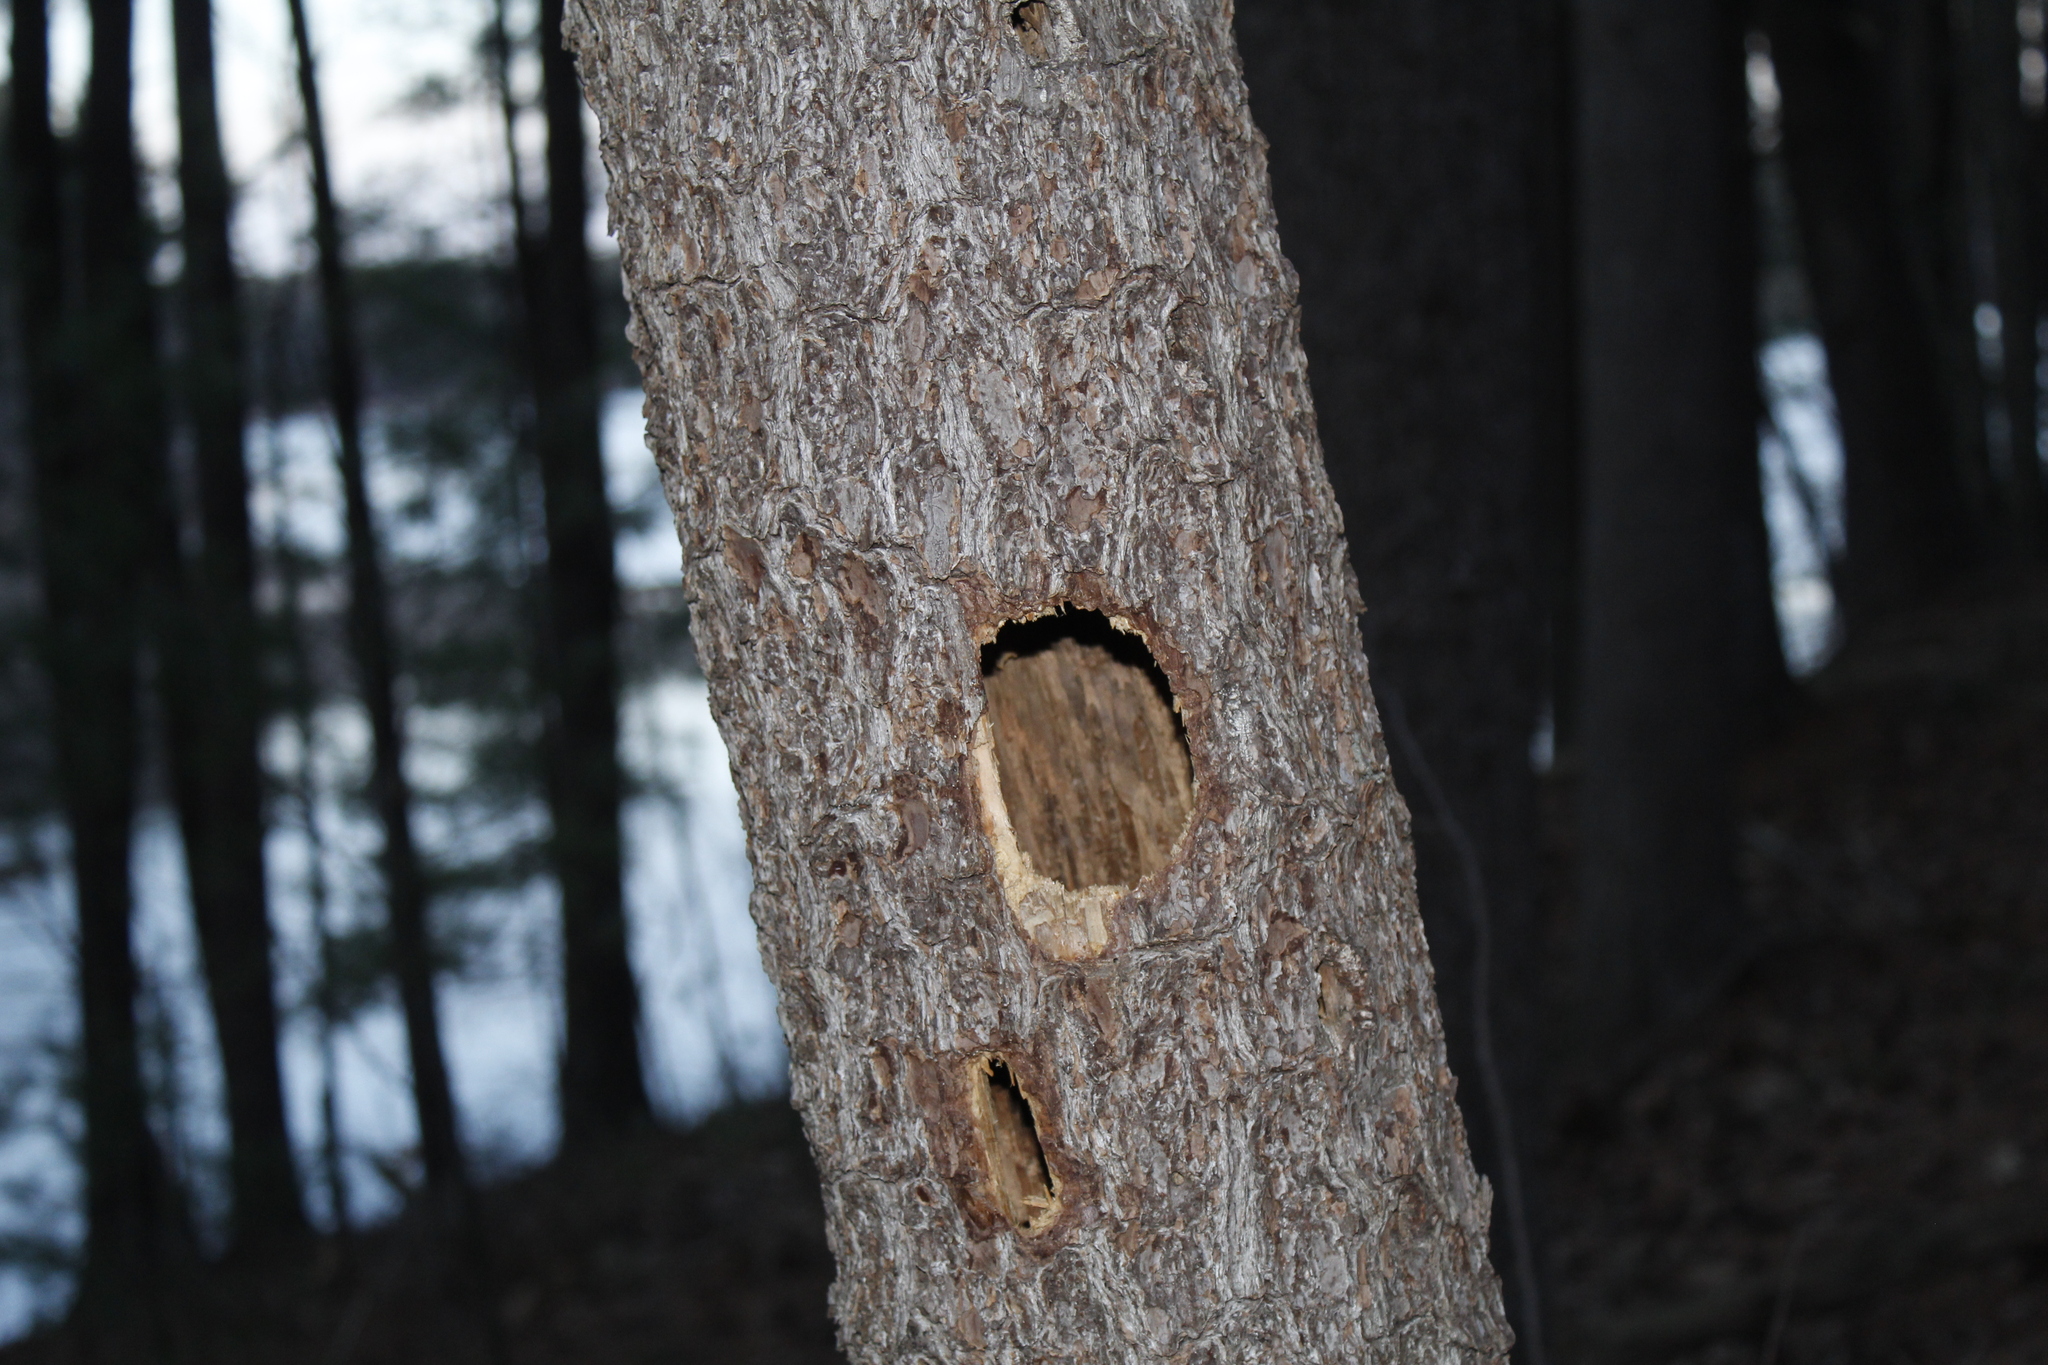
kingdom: Animalia
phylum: Chordata
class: Aves
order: Piciformes
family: Picidae
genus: Dryocopus
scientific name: Dryocopus pileatus
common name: Pileated woodpecker
